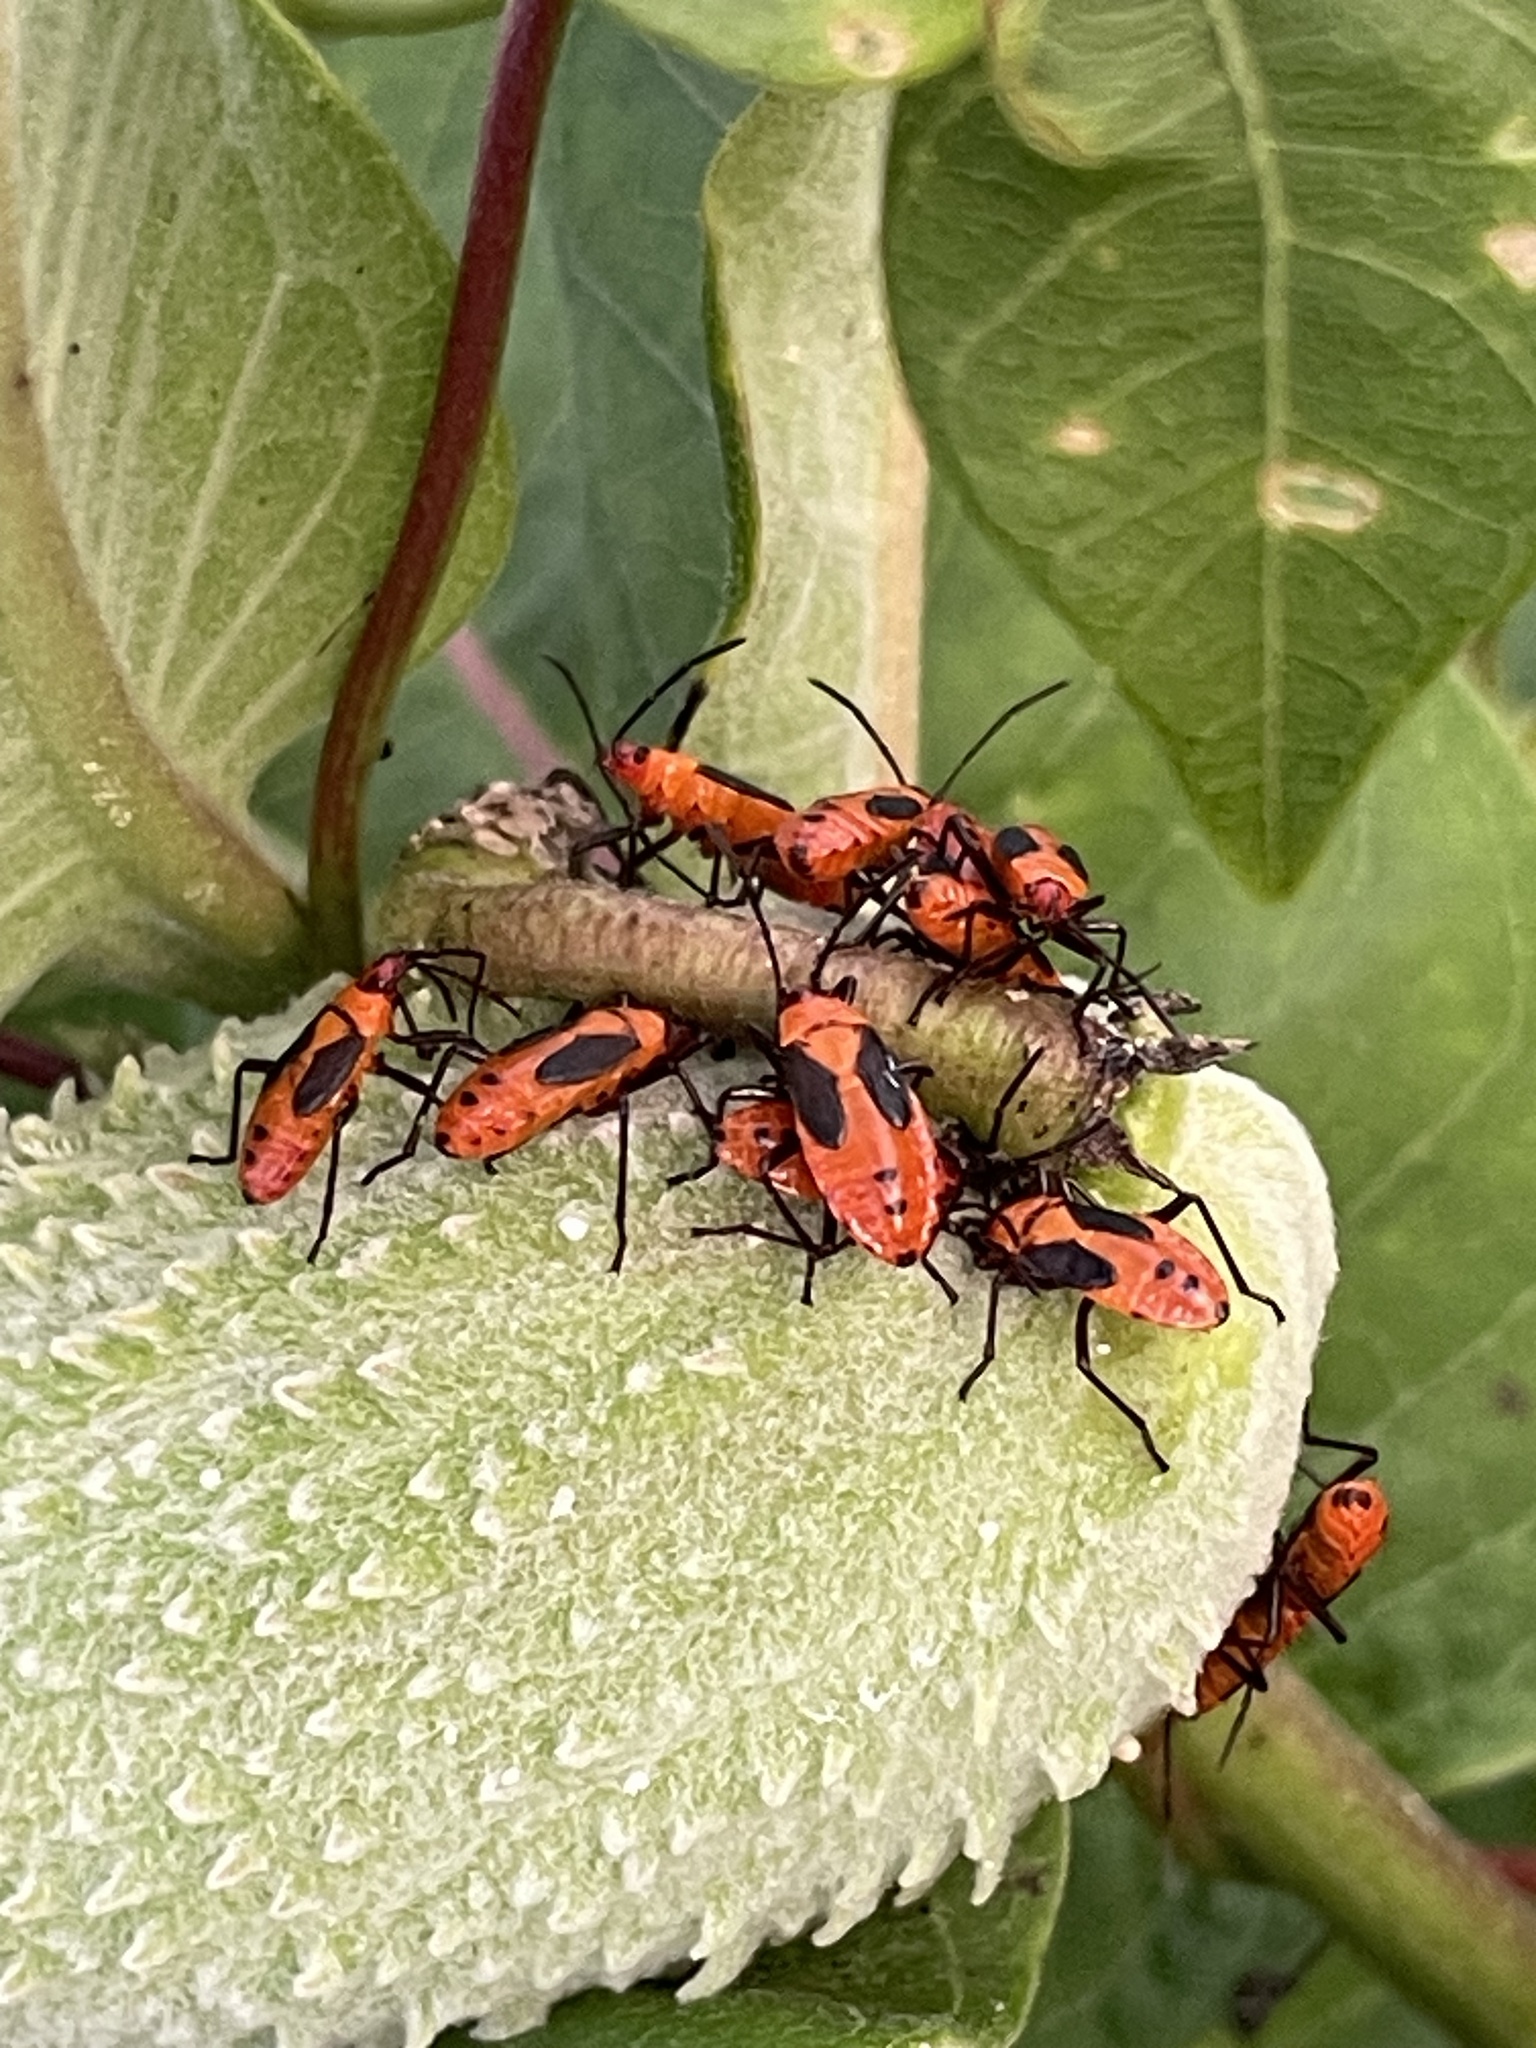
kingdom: Animalia
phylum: Arthropoda
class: Insecta
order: Hemiptera
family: Lygaeidae
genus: Oncopeltus
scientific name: Oncopeltus fasciatus
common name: Large milkweed bug
